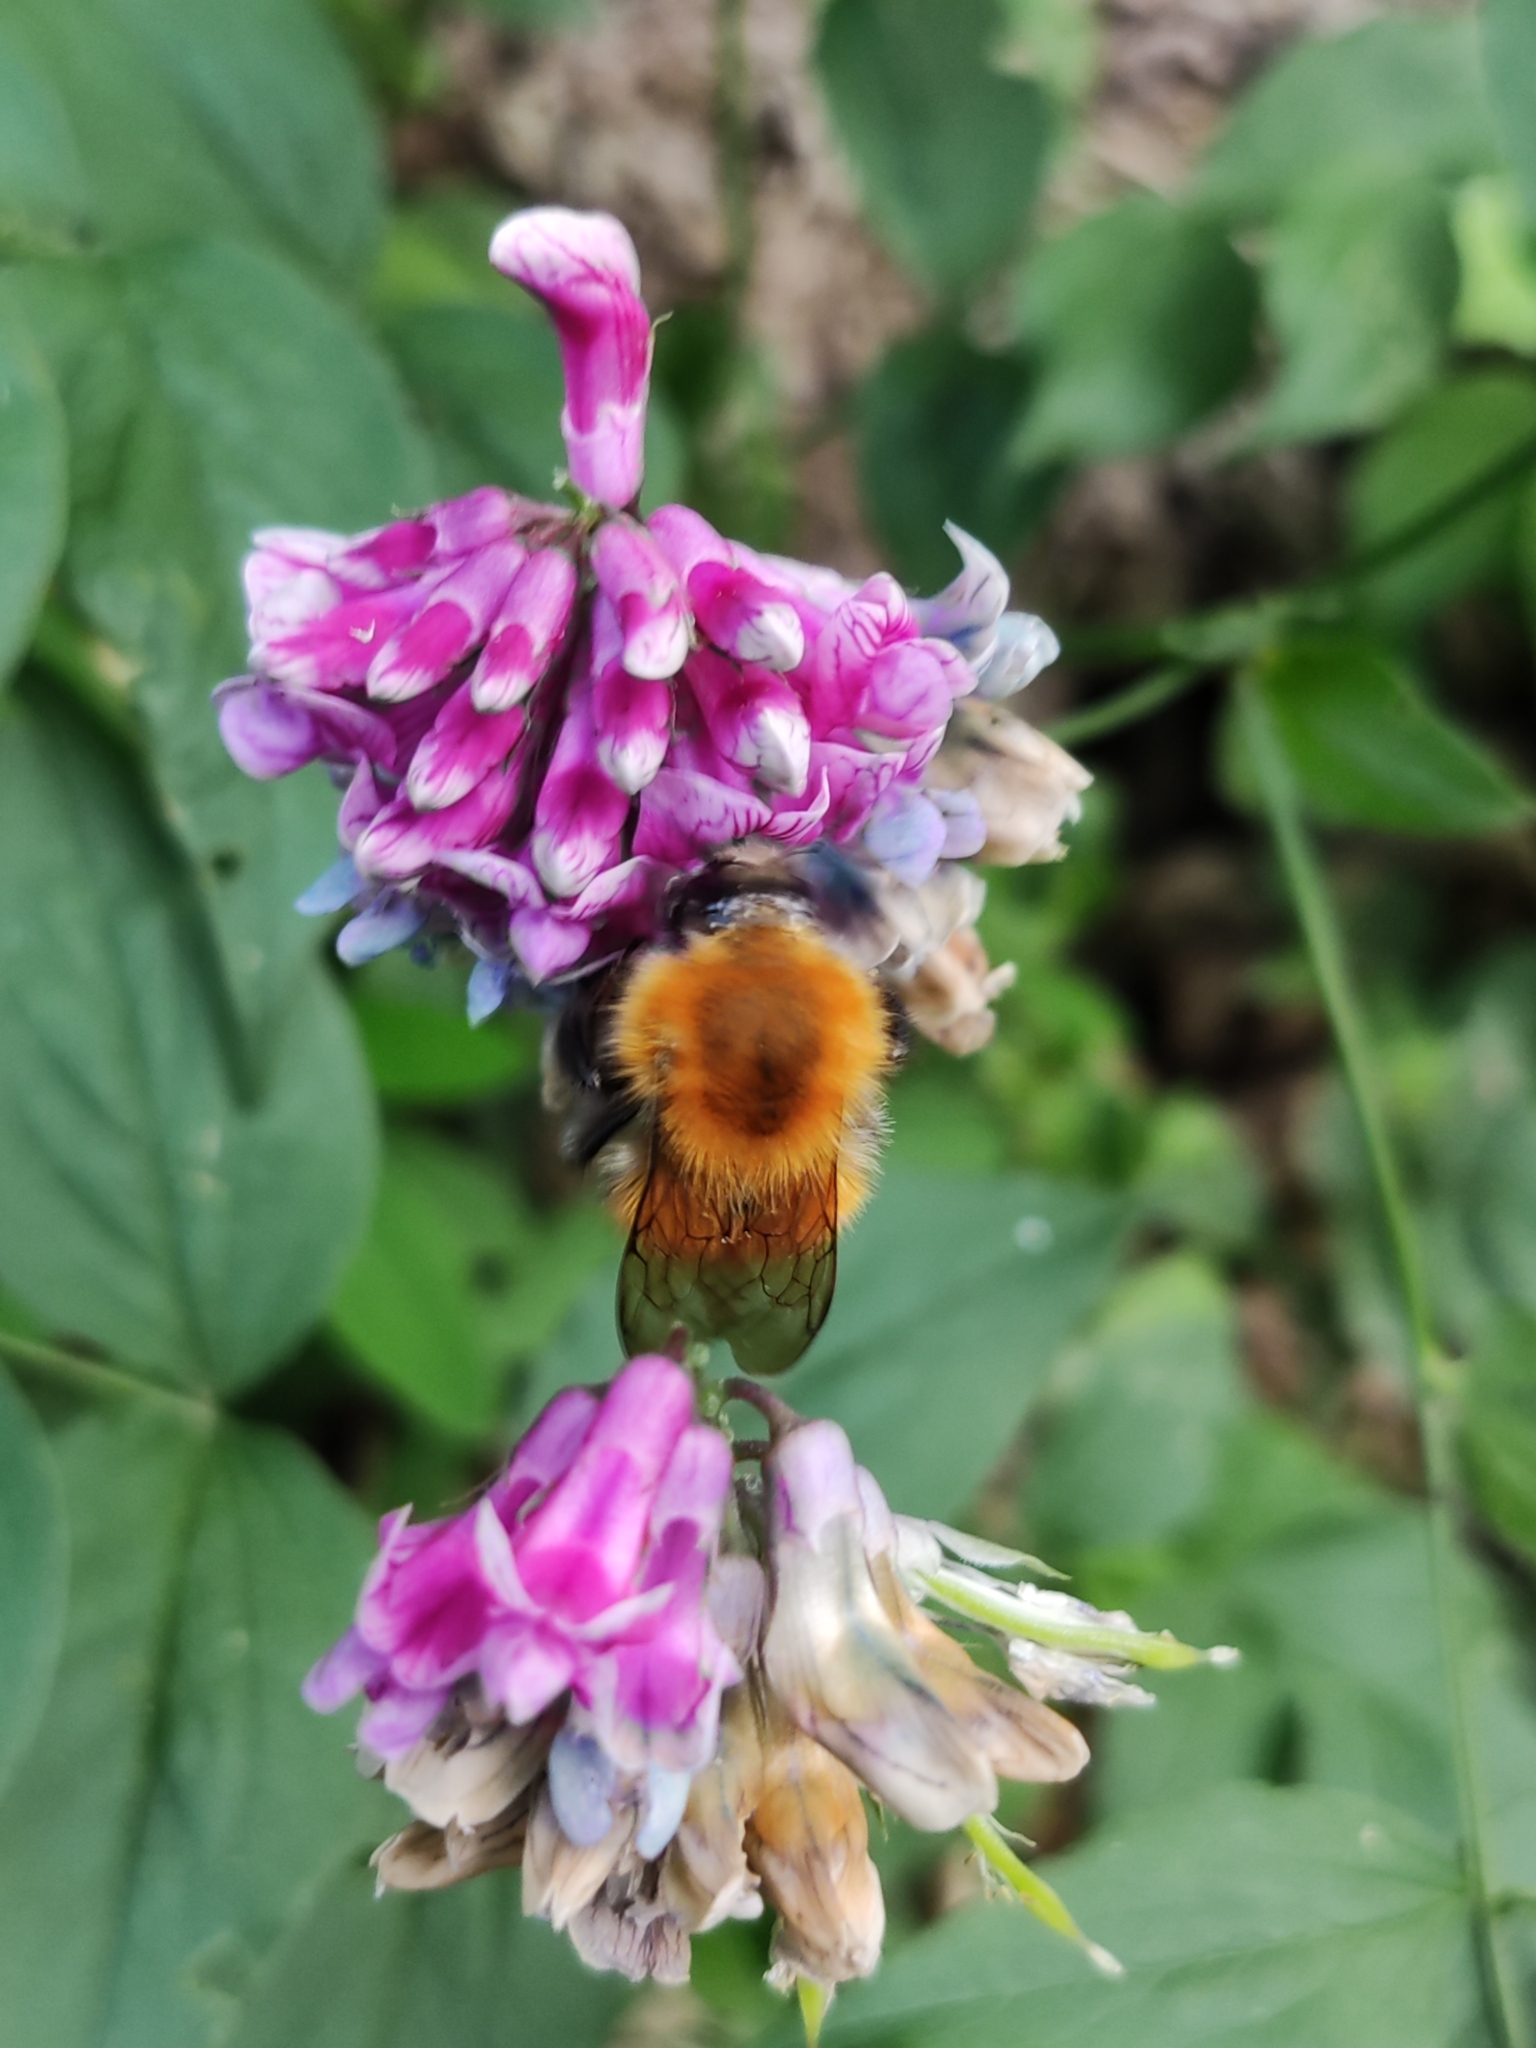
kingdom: Animalia
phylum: Arthropoda
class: Insecta
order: Hymenoptera
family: Apidae
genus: Bombus
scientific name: Bombus pascuorum
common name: Common carder bee
